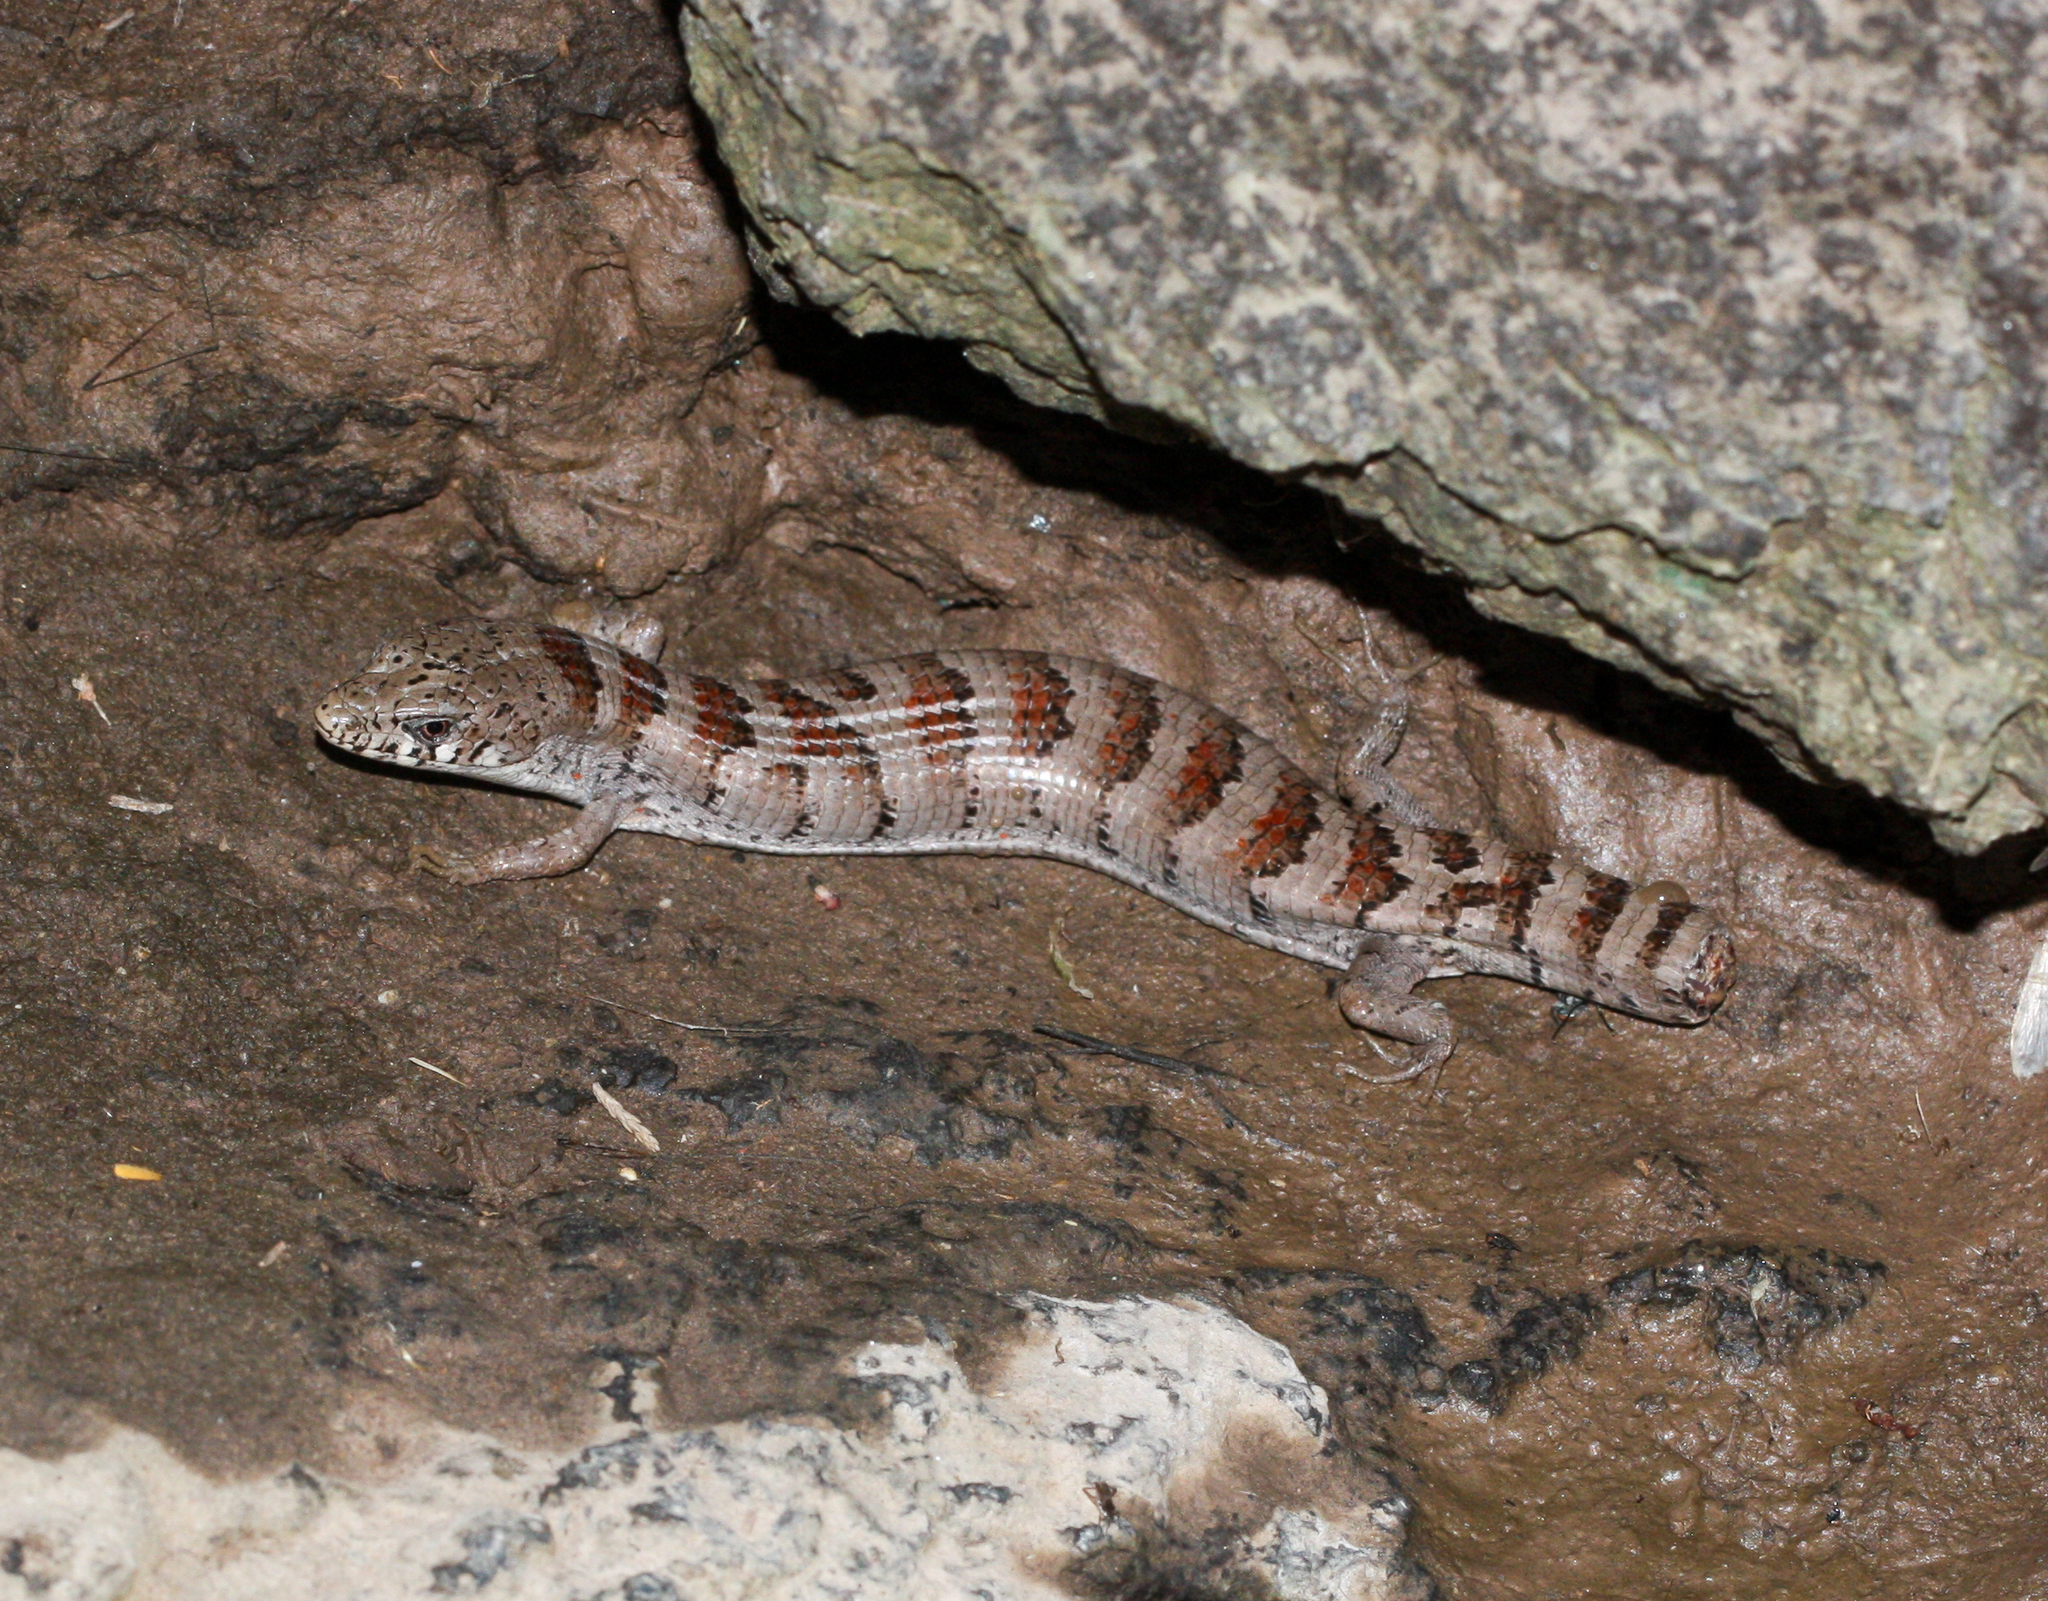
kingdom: Animalia
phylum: Chordata
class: Squamata
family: Anguidae
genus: Elgaria
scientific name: Elgaria kingii
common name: Madrean alligator lizard
